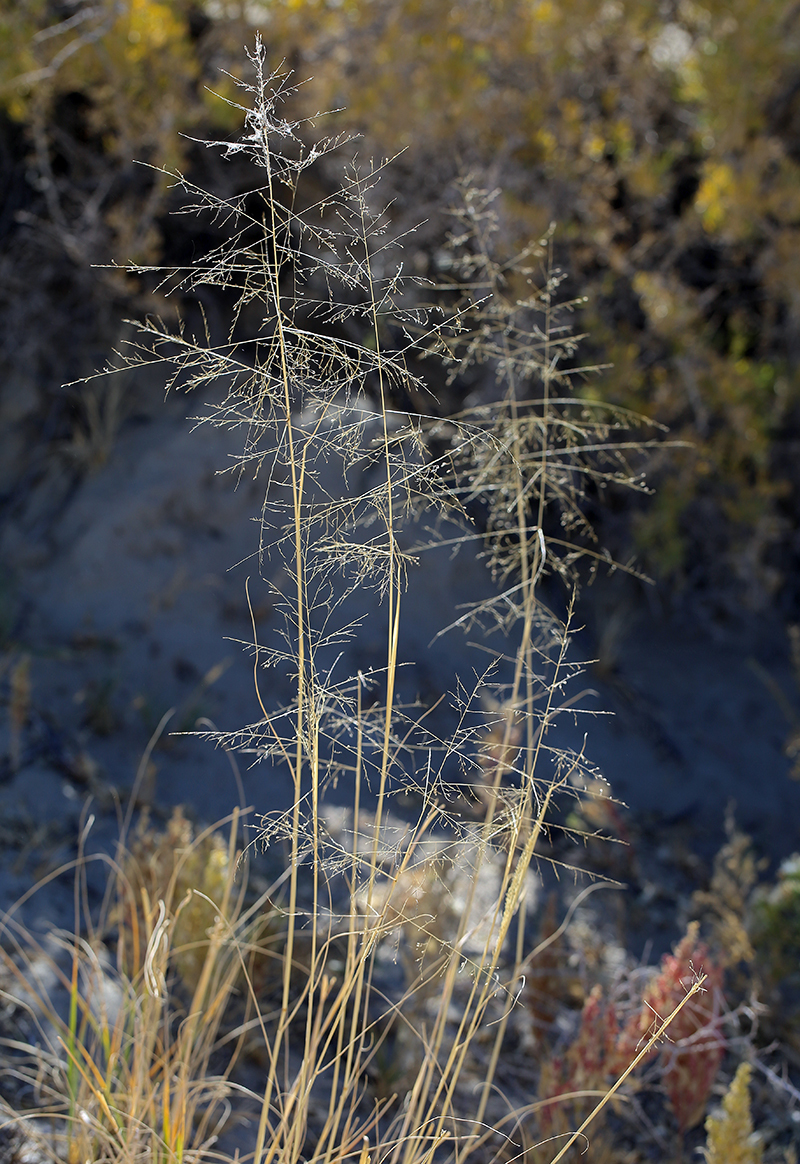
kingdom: Plantae
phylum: Tracheophyta
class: Liliopsida
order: Poales
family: Poaceae
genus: Sporobolus
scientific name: Sporobolus airoides
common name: Alkali sacaton
